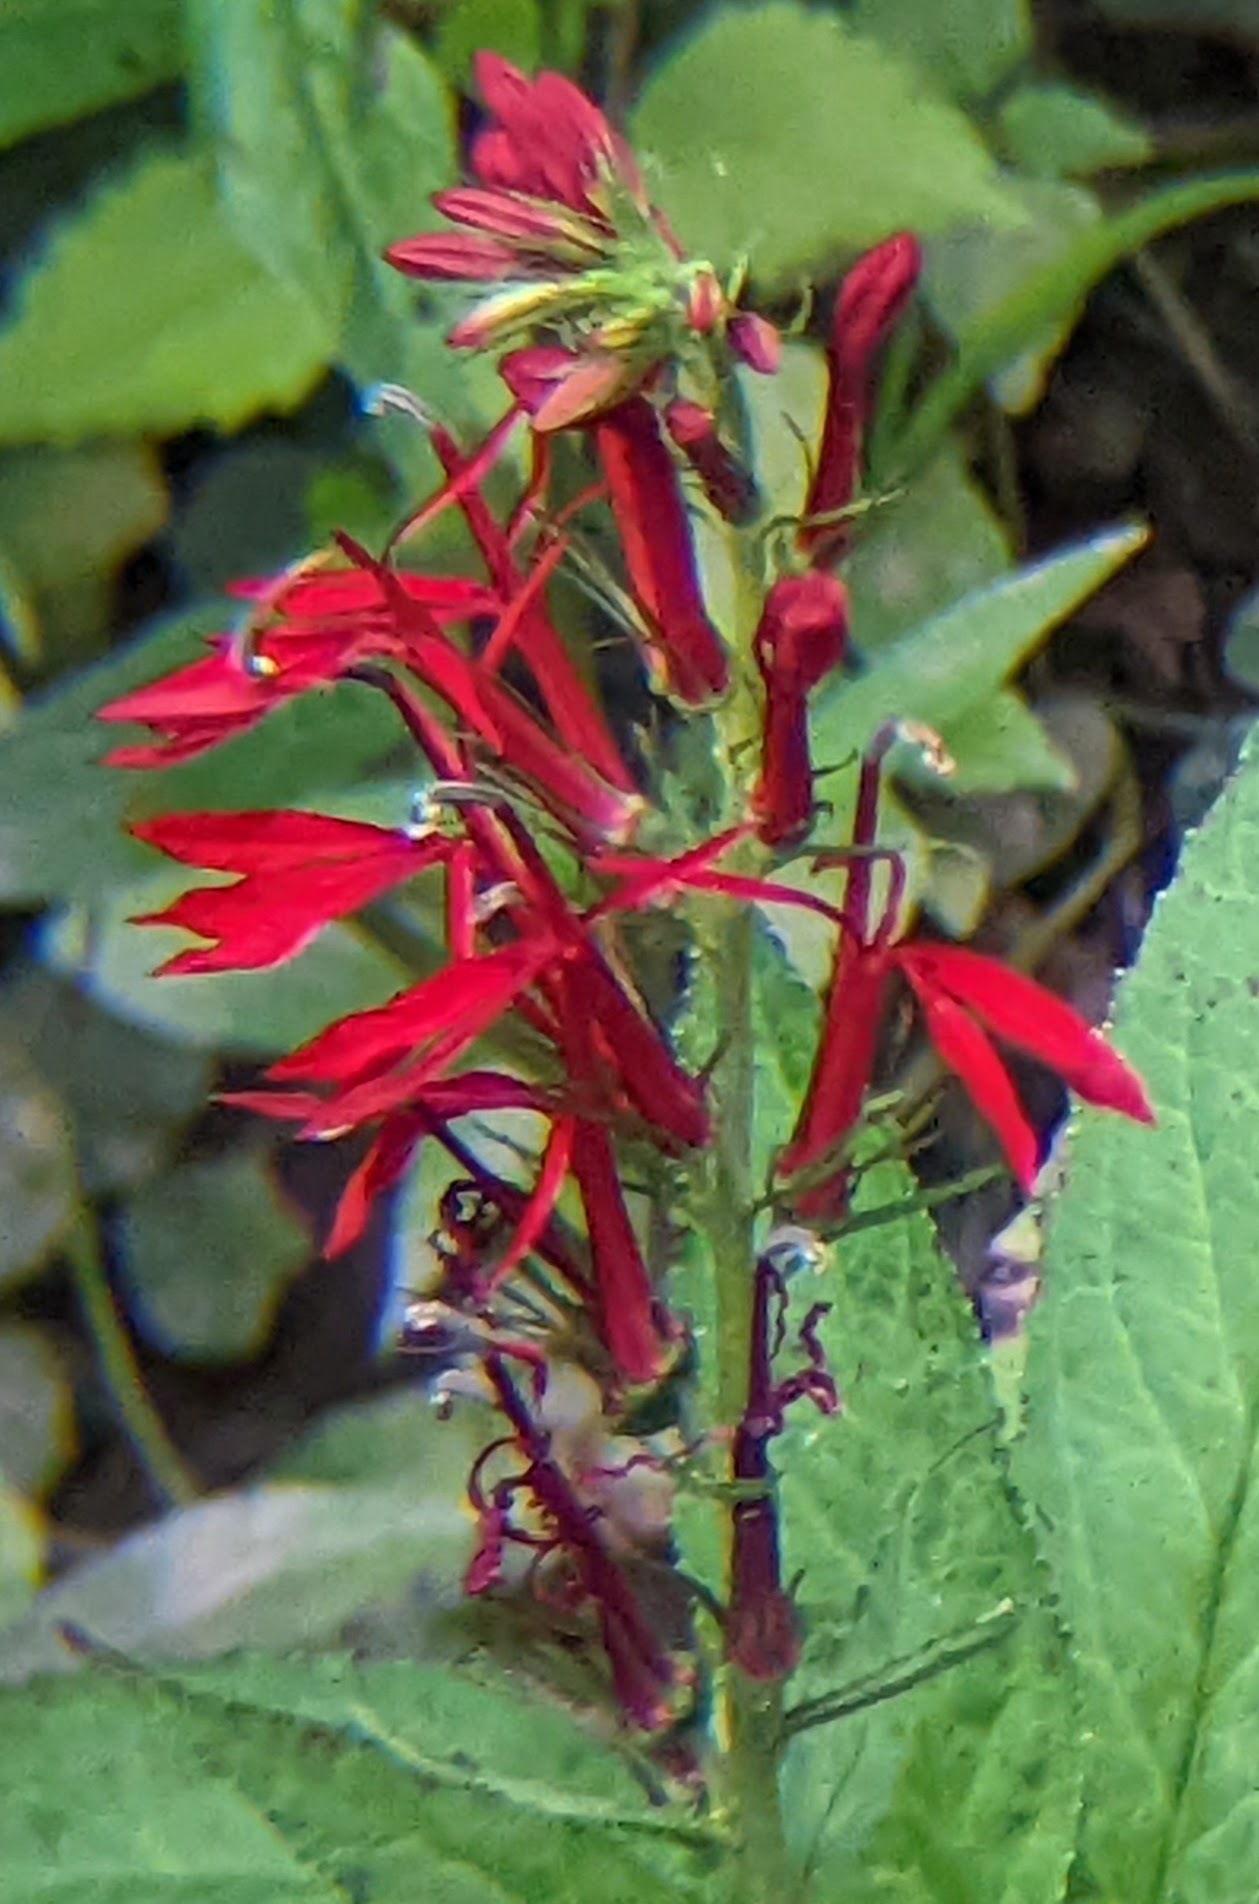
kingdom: Plantae
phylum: Tracheophyta
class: Magnoliopsida
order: Asterales
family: Campanulaceae
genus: Lobelia
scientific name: Lobelia cardinalis
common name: Cardinal flower
